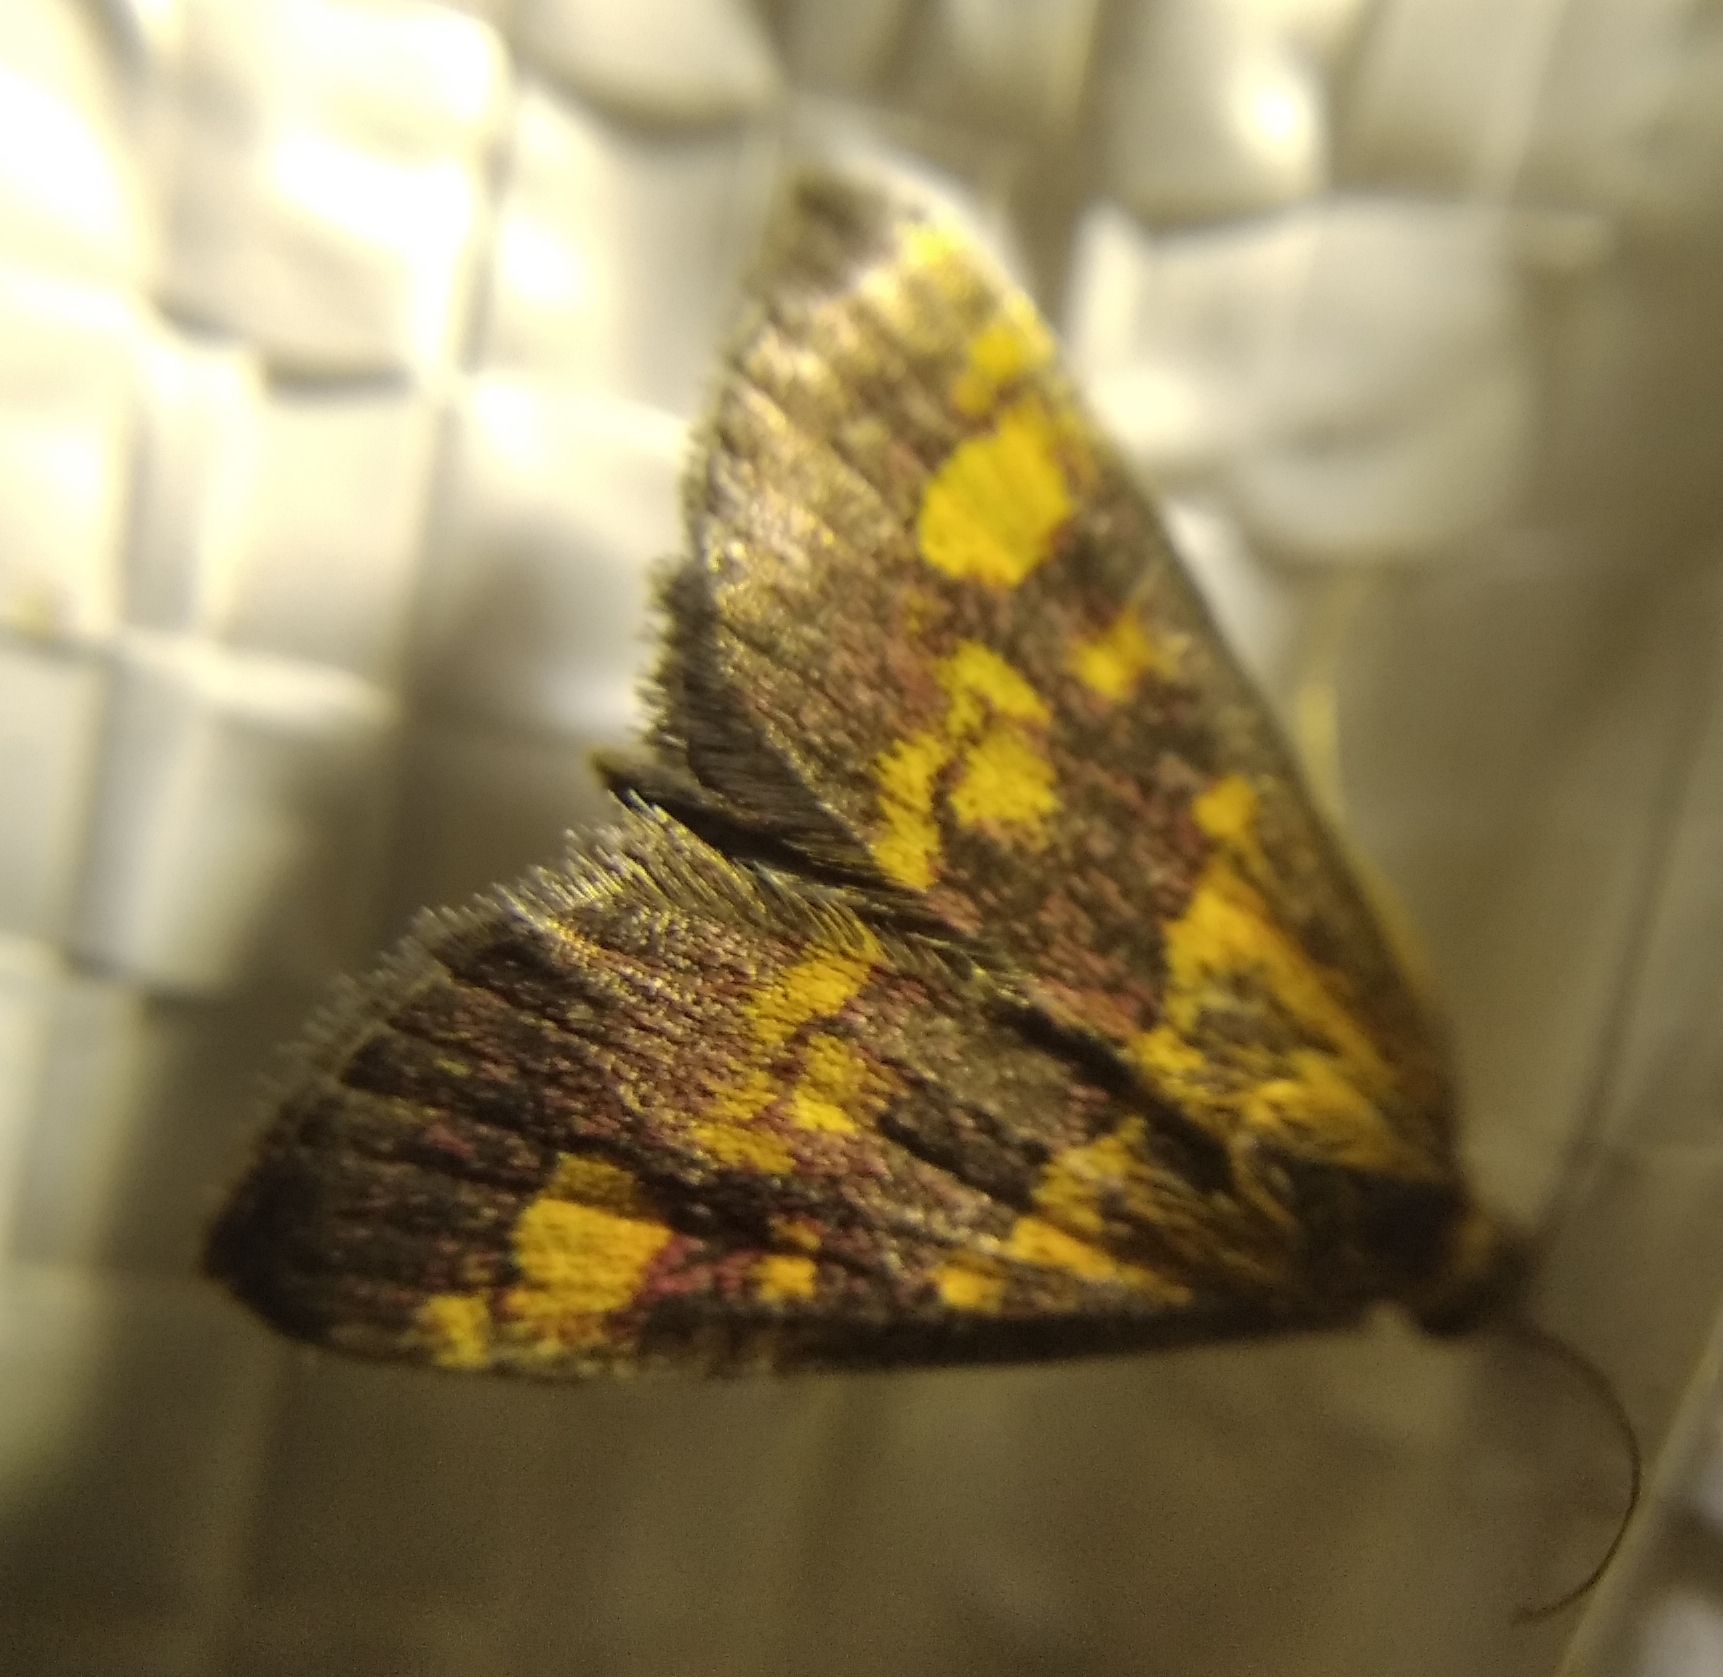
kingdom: Animalia
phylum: Arthropoda
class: Insecta
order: Lepidoptera
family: Crambidae
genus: Pyrausta
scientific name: Pyrausta aurata
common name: Small purple & gold
